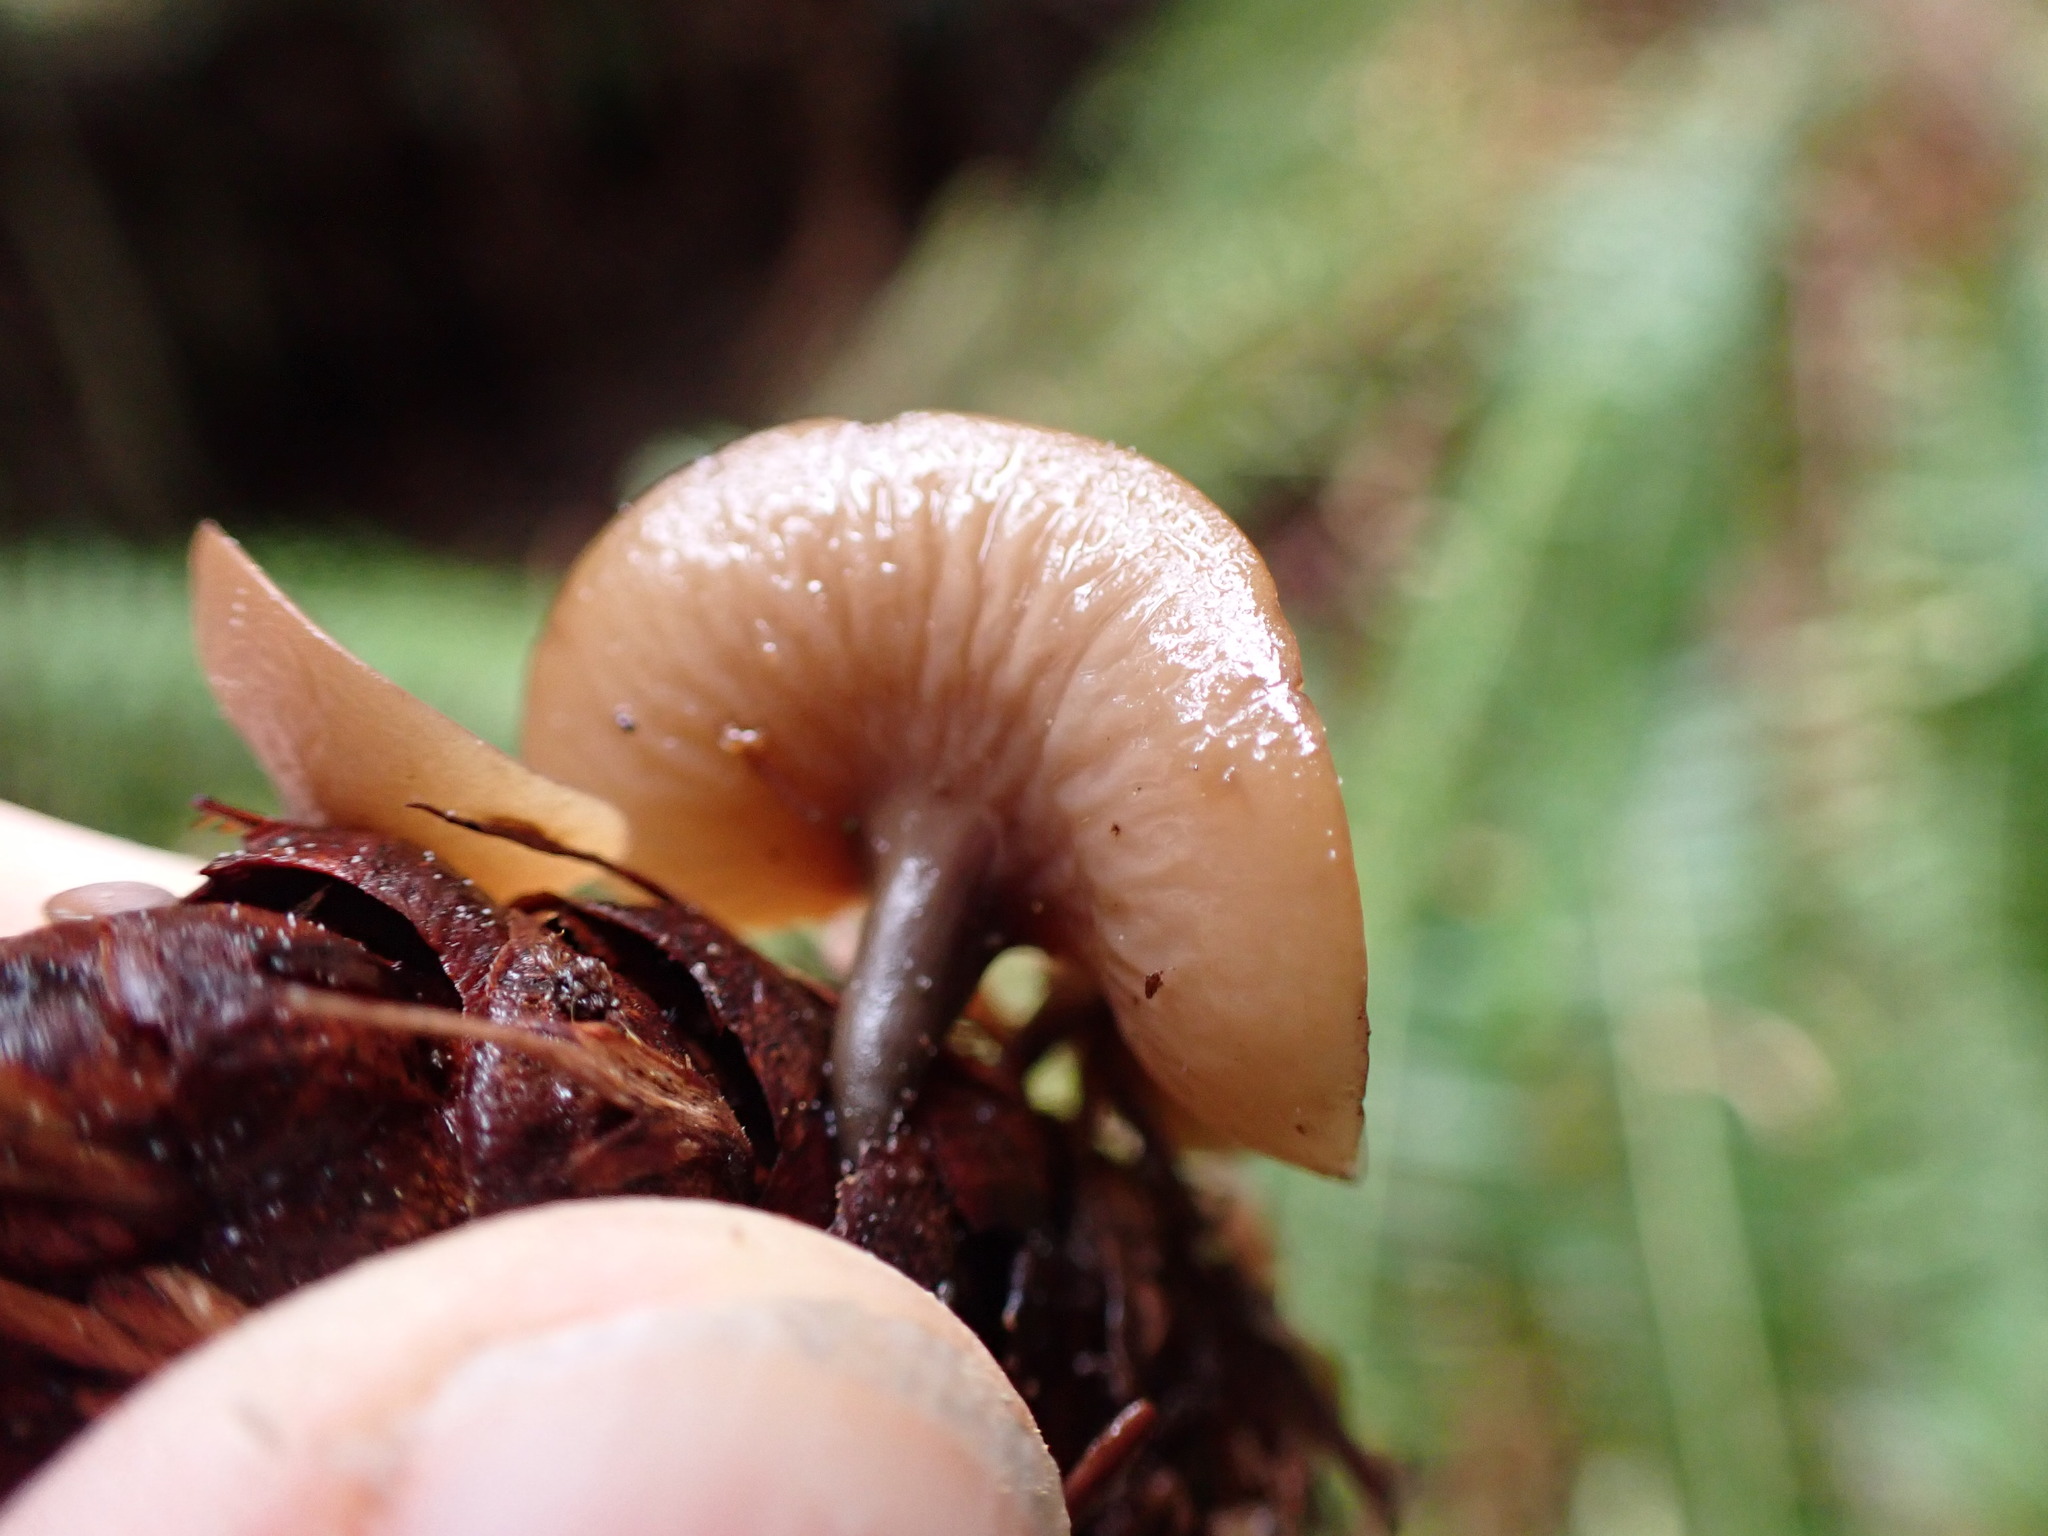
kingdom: Fungi
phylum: Ascomycota
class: Leotiomycetes
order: Helotiales
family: Sclerotiniaceae
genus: Ciboria
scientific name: Ciboria rufofusca
